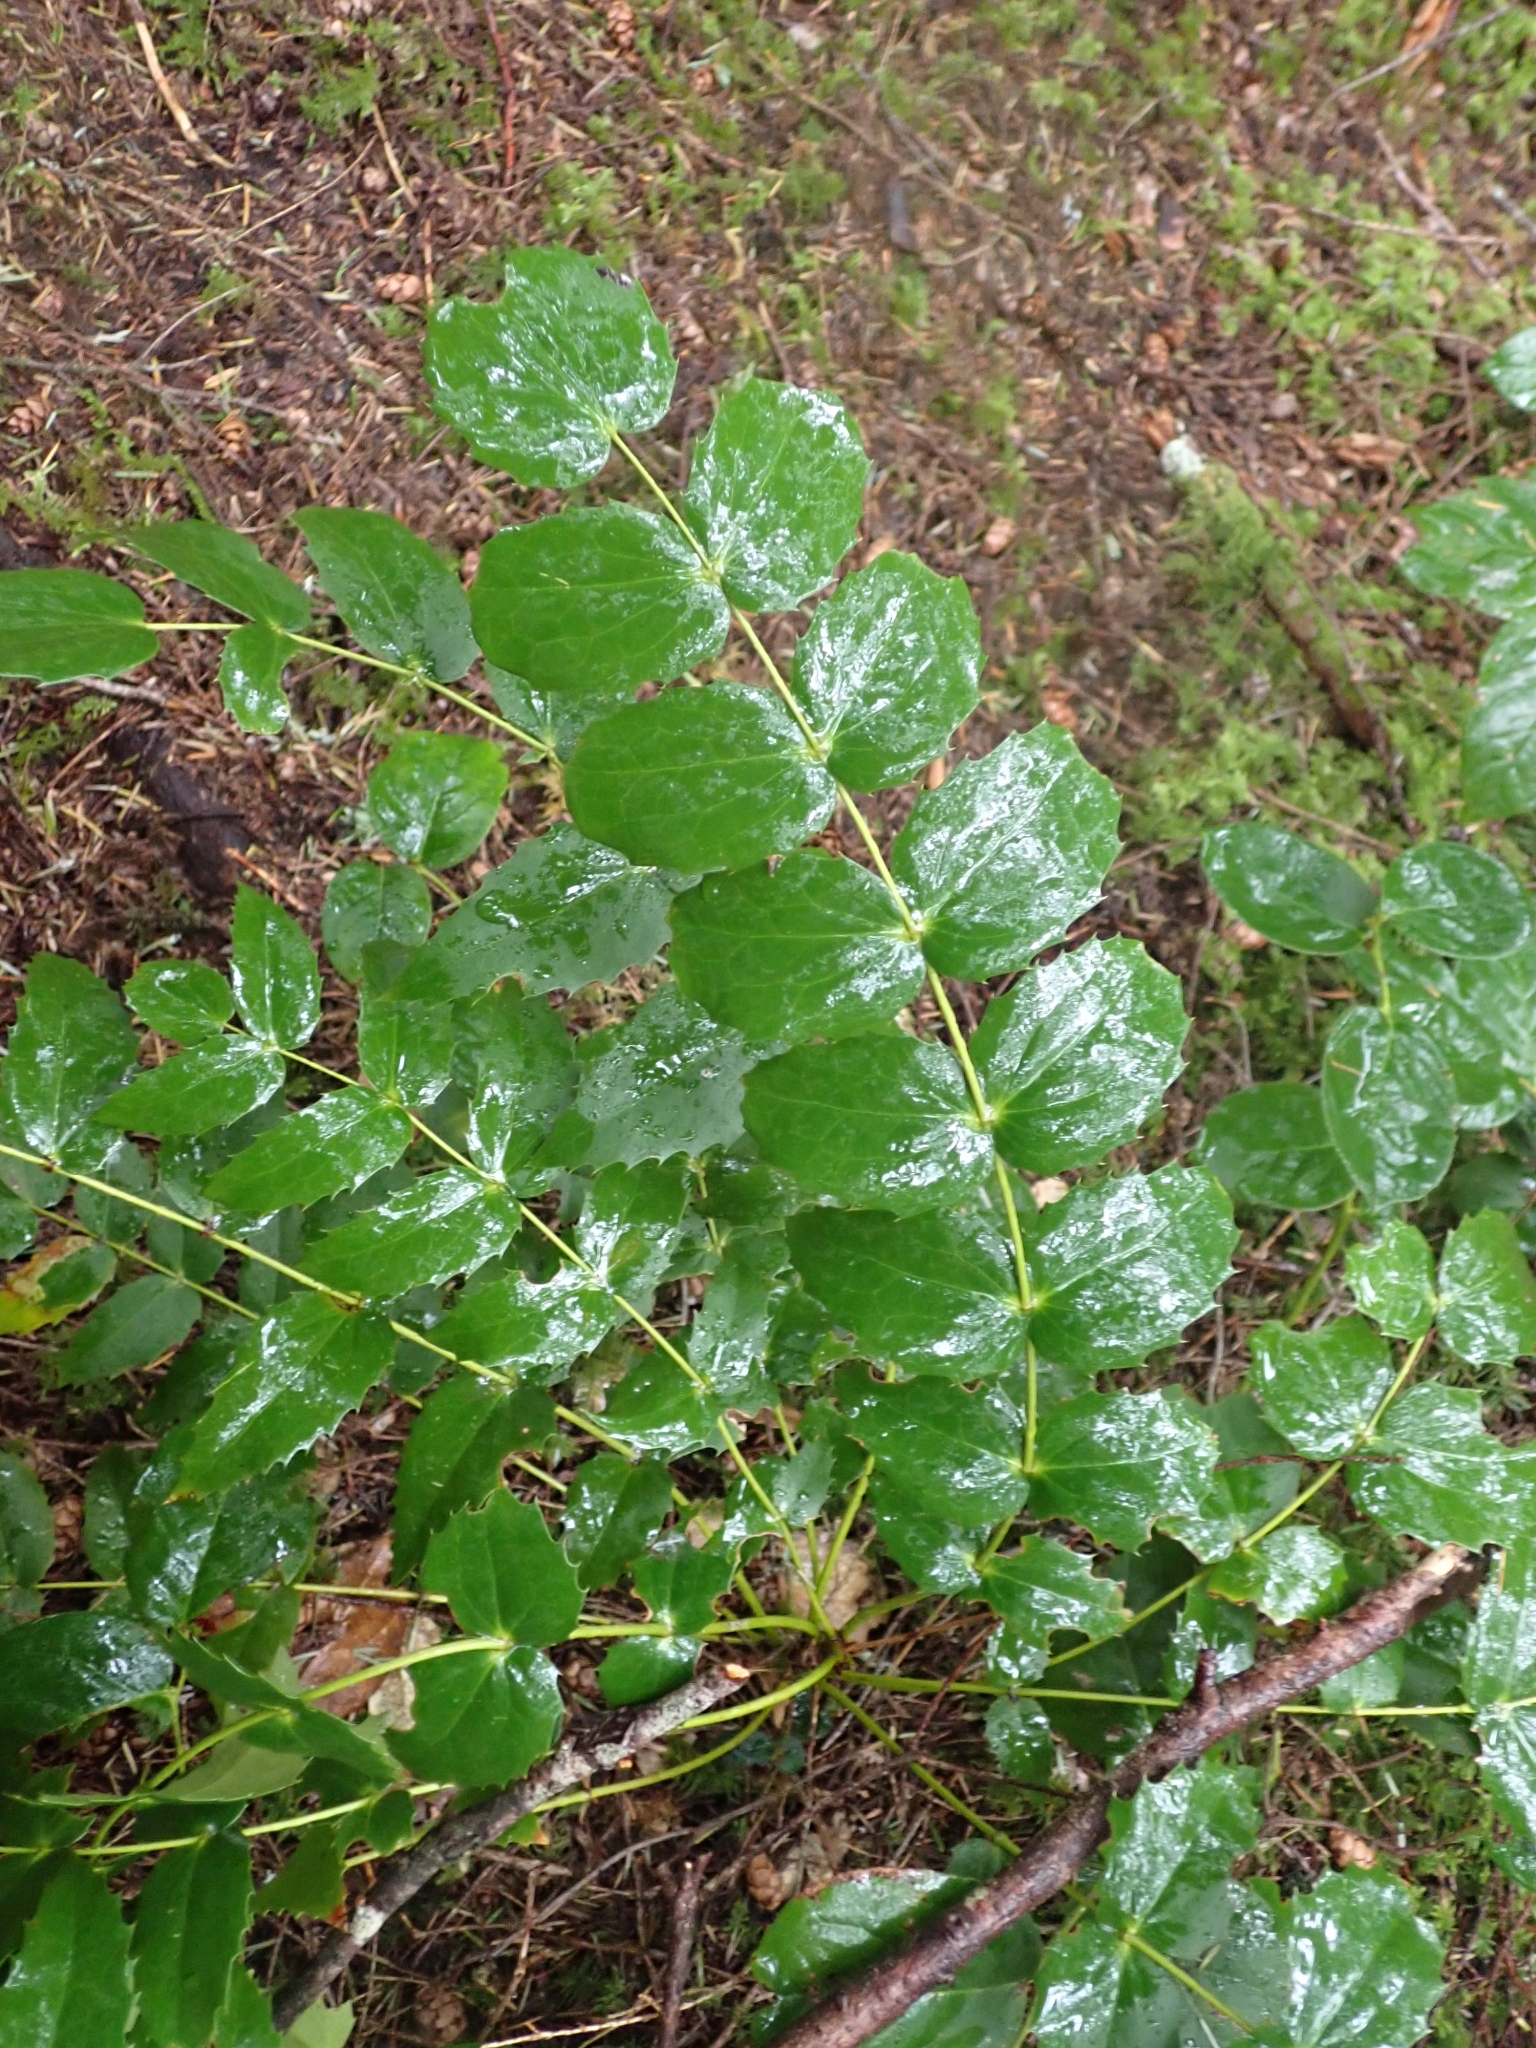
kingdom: Plantae
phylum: Tracheophyta
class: Magnoliopsida
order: Ranunculales
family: Berberidaceae
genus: Mahonia
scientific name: Mahonia nervosa
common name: Cascade oregon-grape
